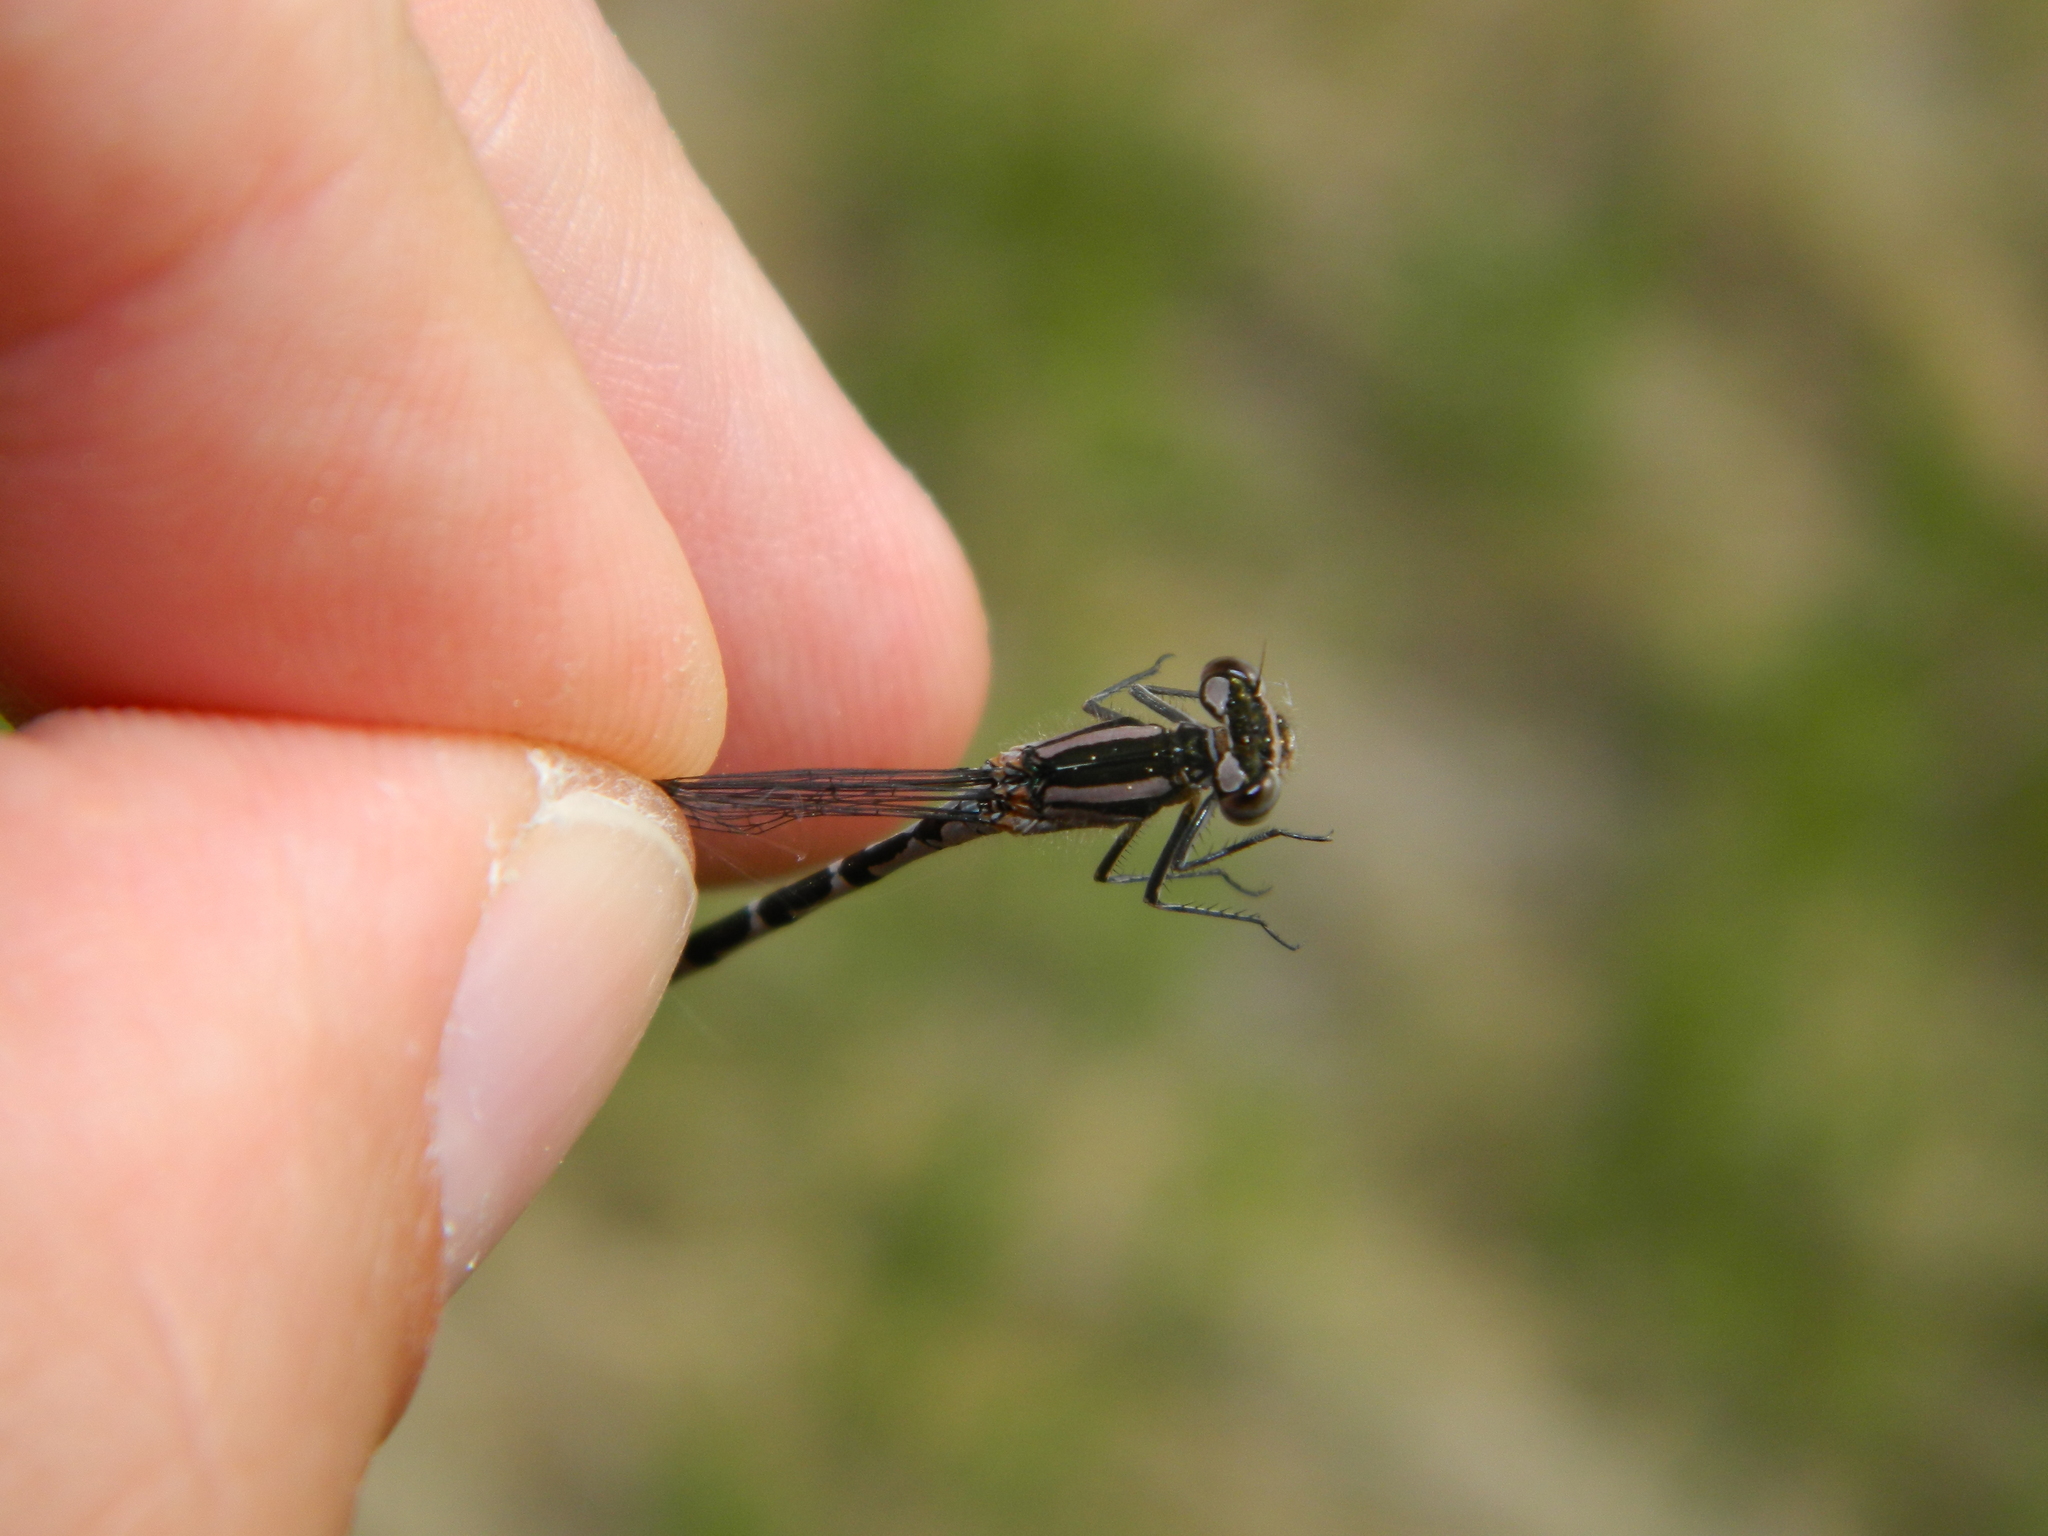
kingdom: Animalia
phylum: Arthropoda
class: Insecta
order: Odonata
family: Coenagrionidae
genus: Enallagma
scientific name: Enallagma annexum
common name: Northern bluet
